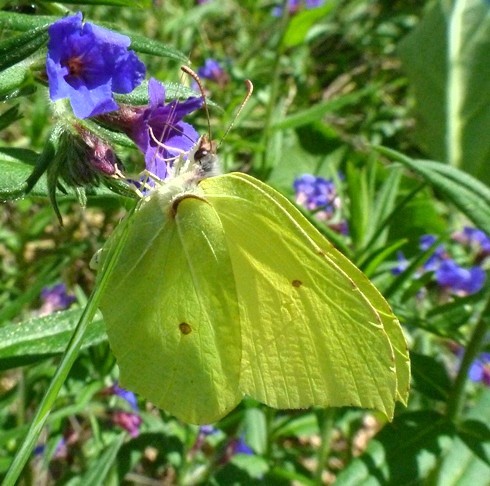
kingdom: Animalia
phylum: Arthropoda
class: Insecta
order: Lepidoptera
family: Pieridae
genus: Gonepteryx
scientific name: Gonepteryx rhamni
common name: Brimstone
